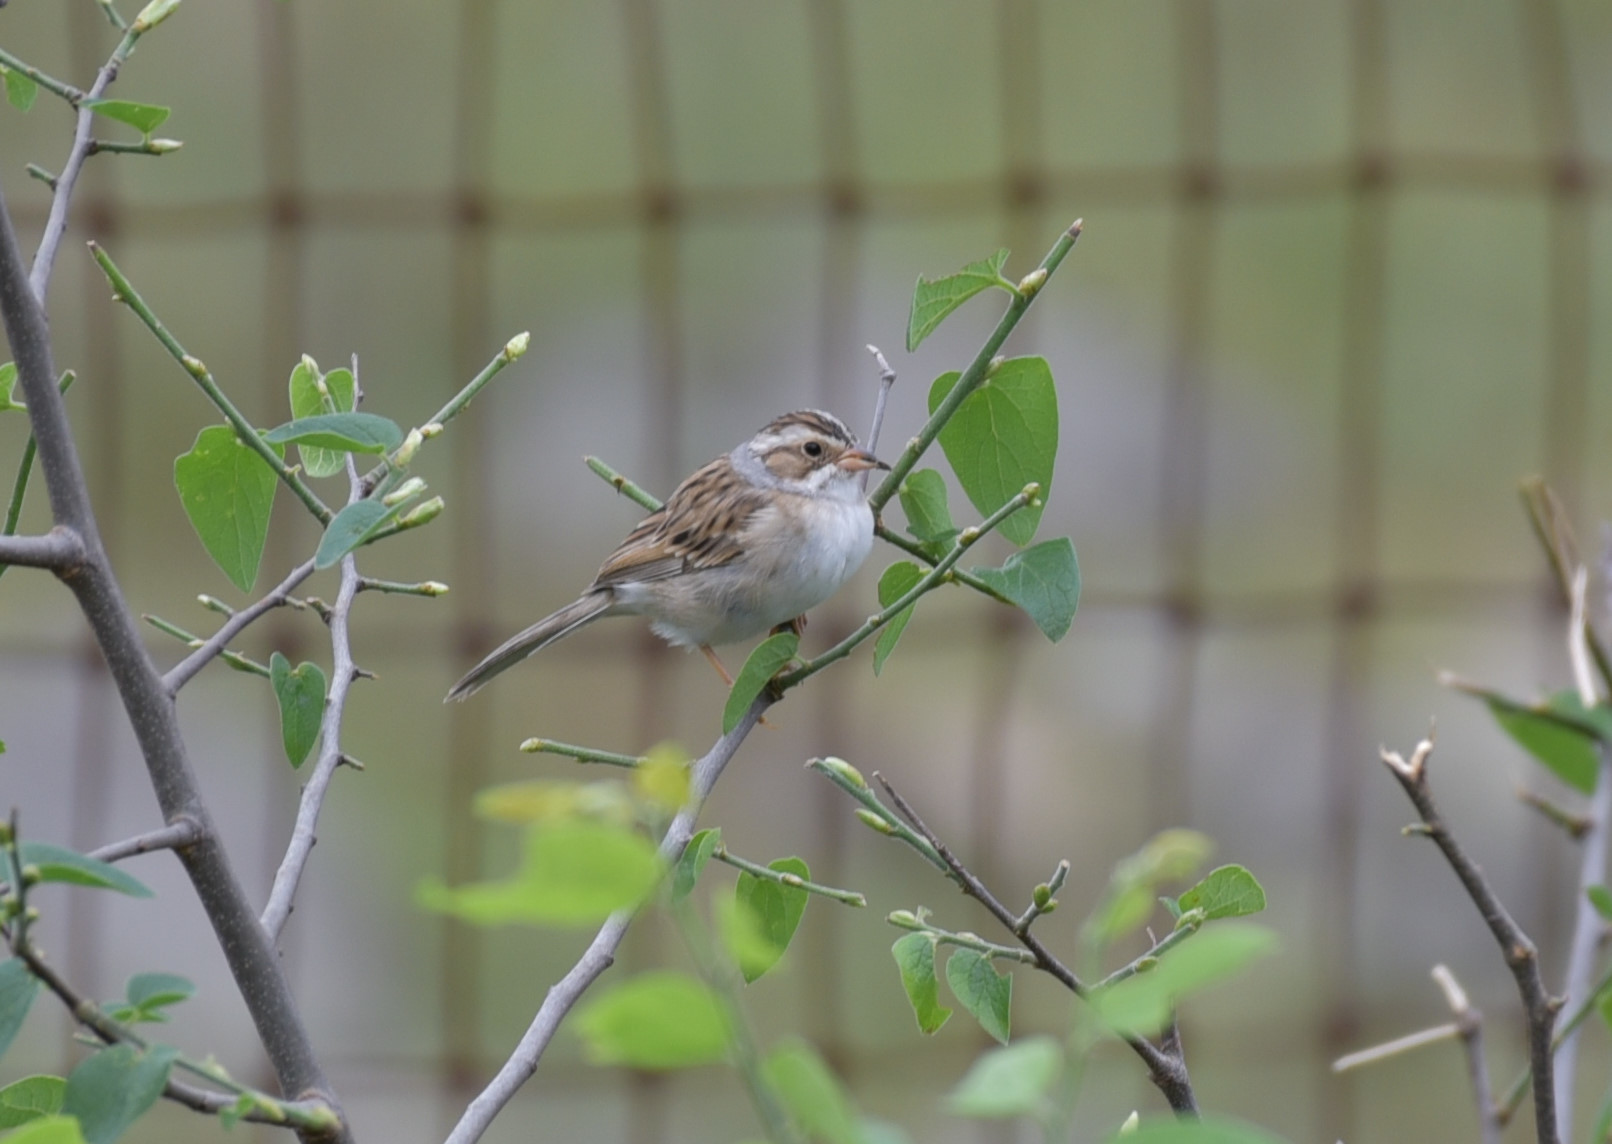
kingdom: Animalia
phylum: Chordata
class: Aves
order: Passeriformes
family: Passerellidae
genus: Spizella
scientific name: Spizella pallida
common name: Clay-colored sparrow
